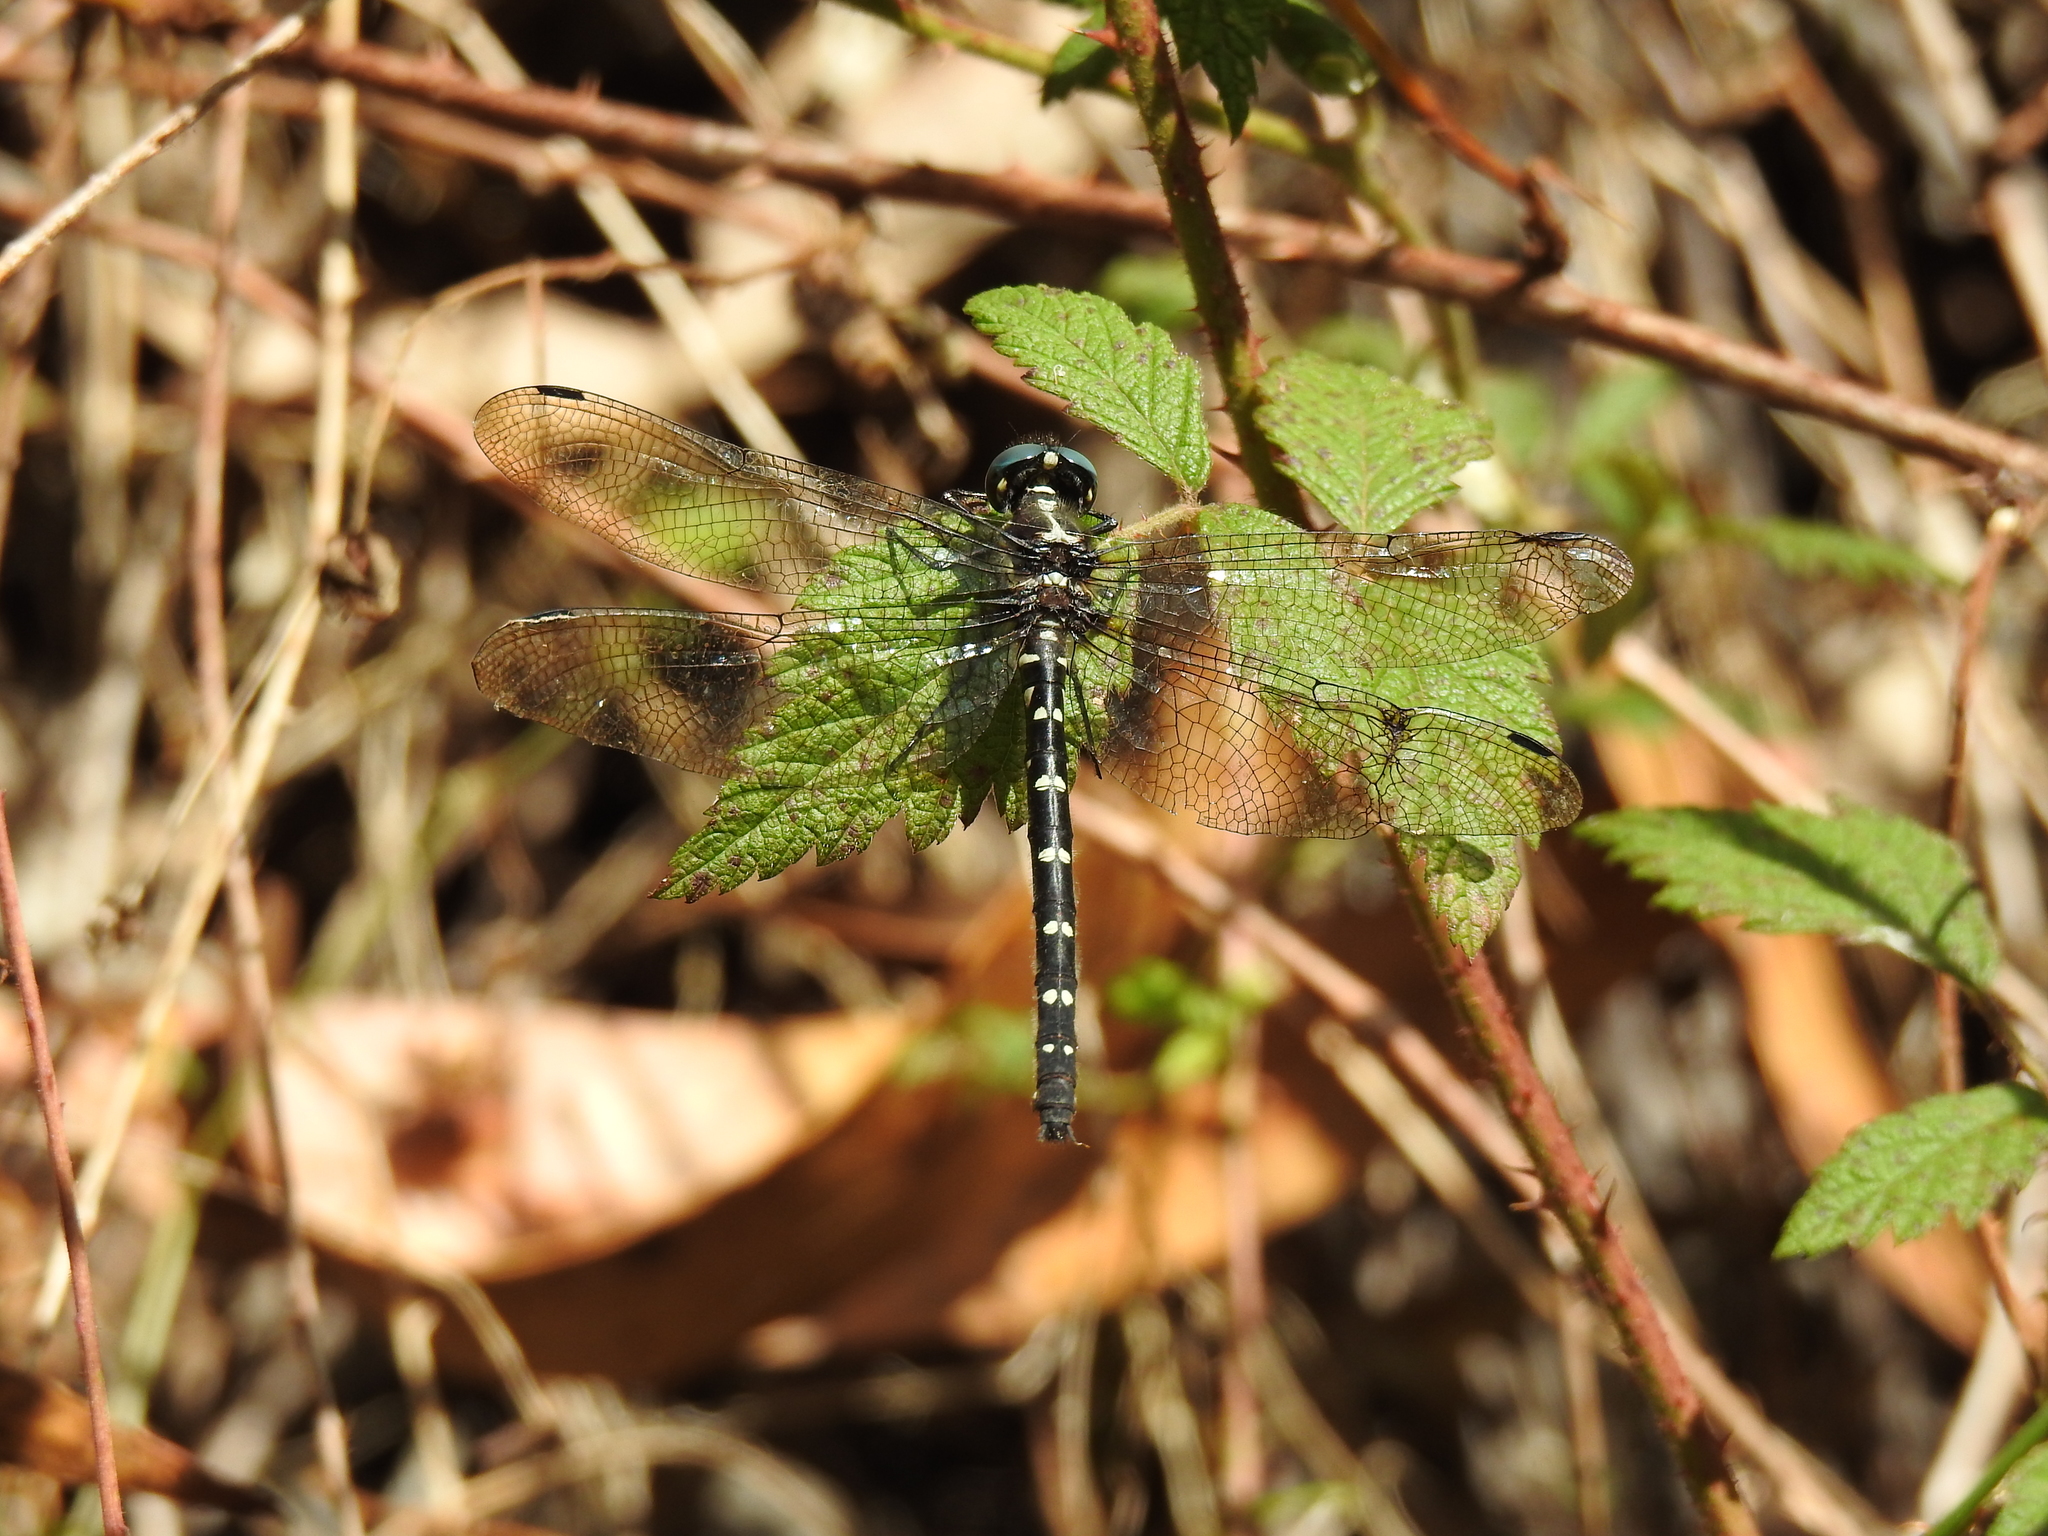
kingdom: Animalia
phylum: Arthropoda
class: Insecta
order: Odonata
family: Synthemistidae
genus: Eusynthemis
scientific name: Eusynthemis guttata
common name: Southern tigertail
